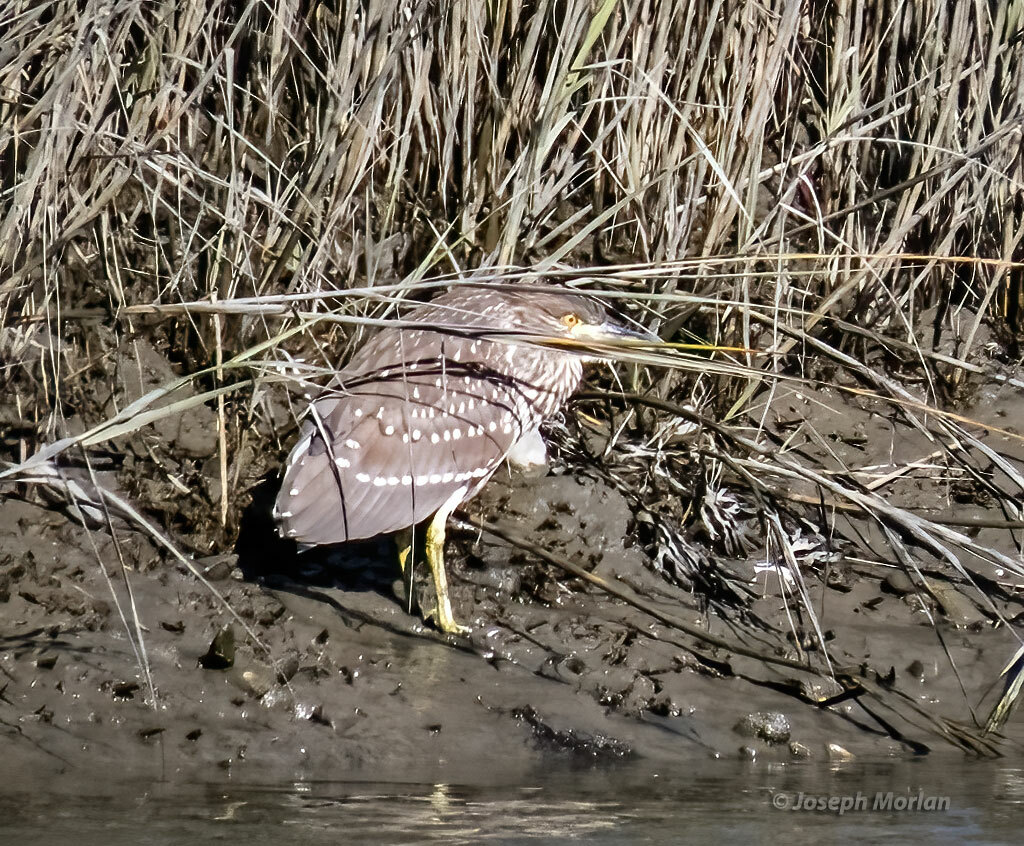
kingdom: Animalia
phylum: Chordata
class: Aves
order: Pelecaniformes
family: Ardeidae
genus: Nycticorax
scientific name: Nycticorax nycticorax
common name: Black-crowned night heron
